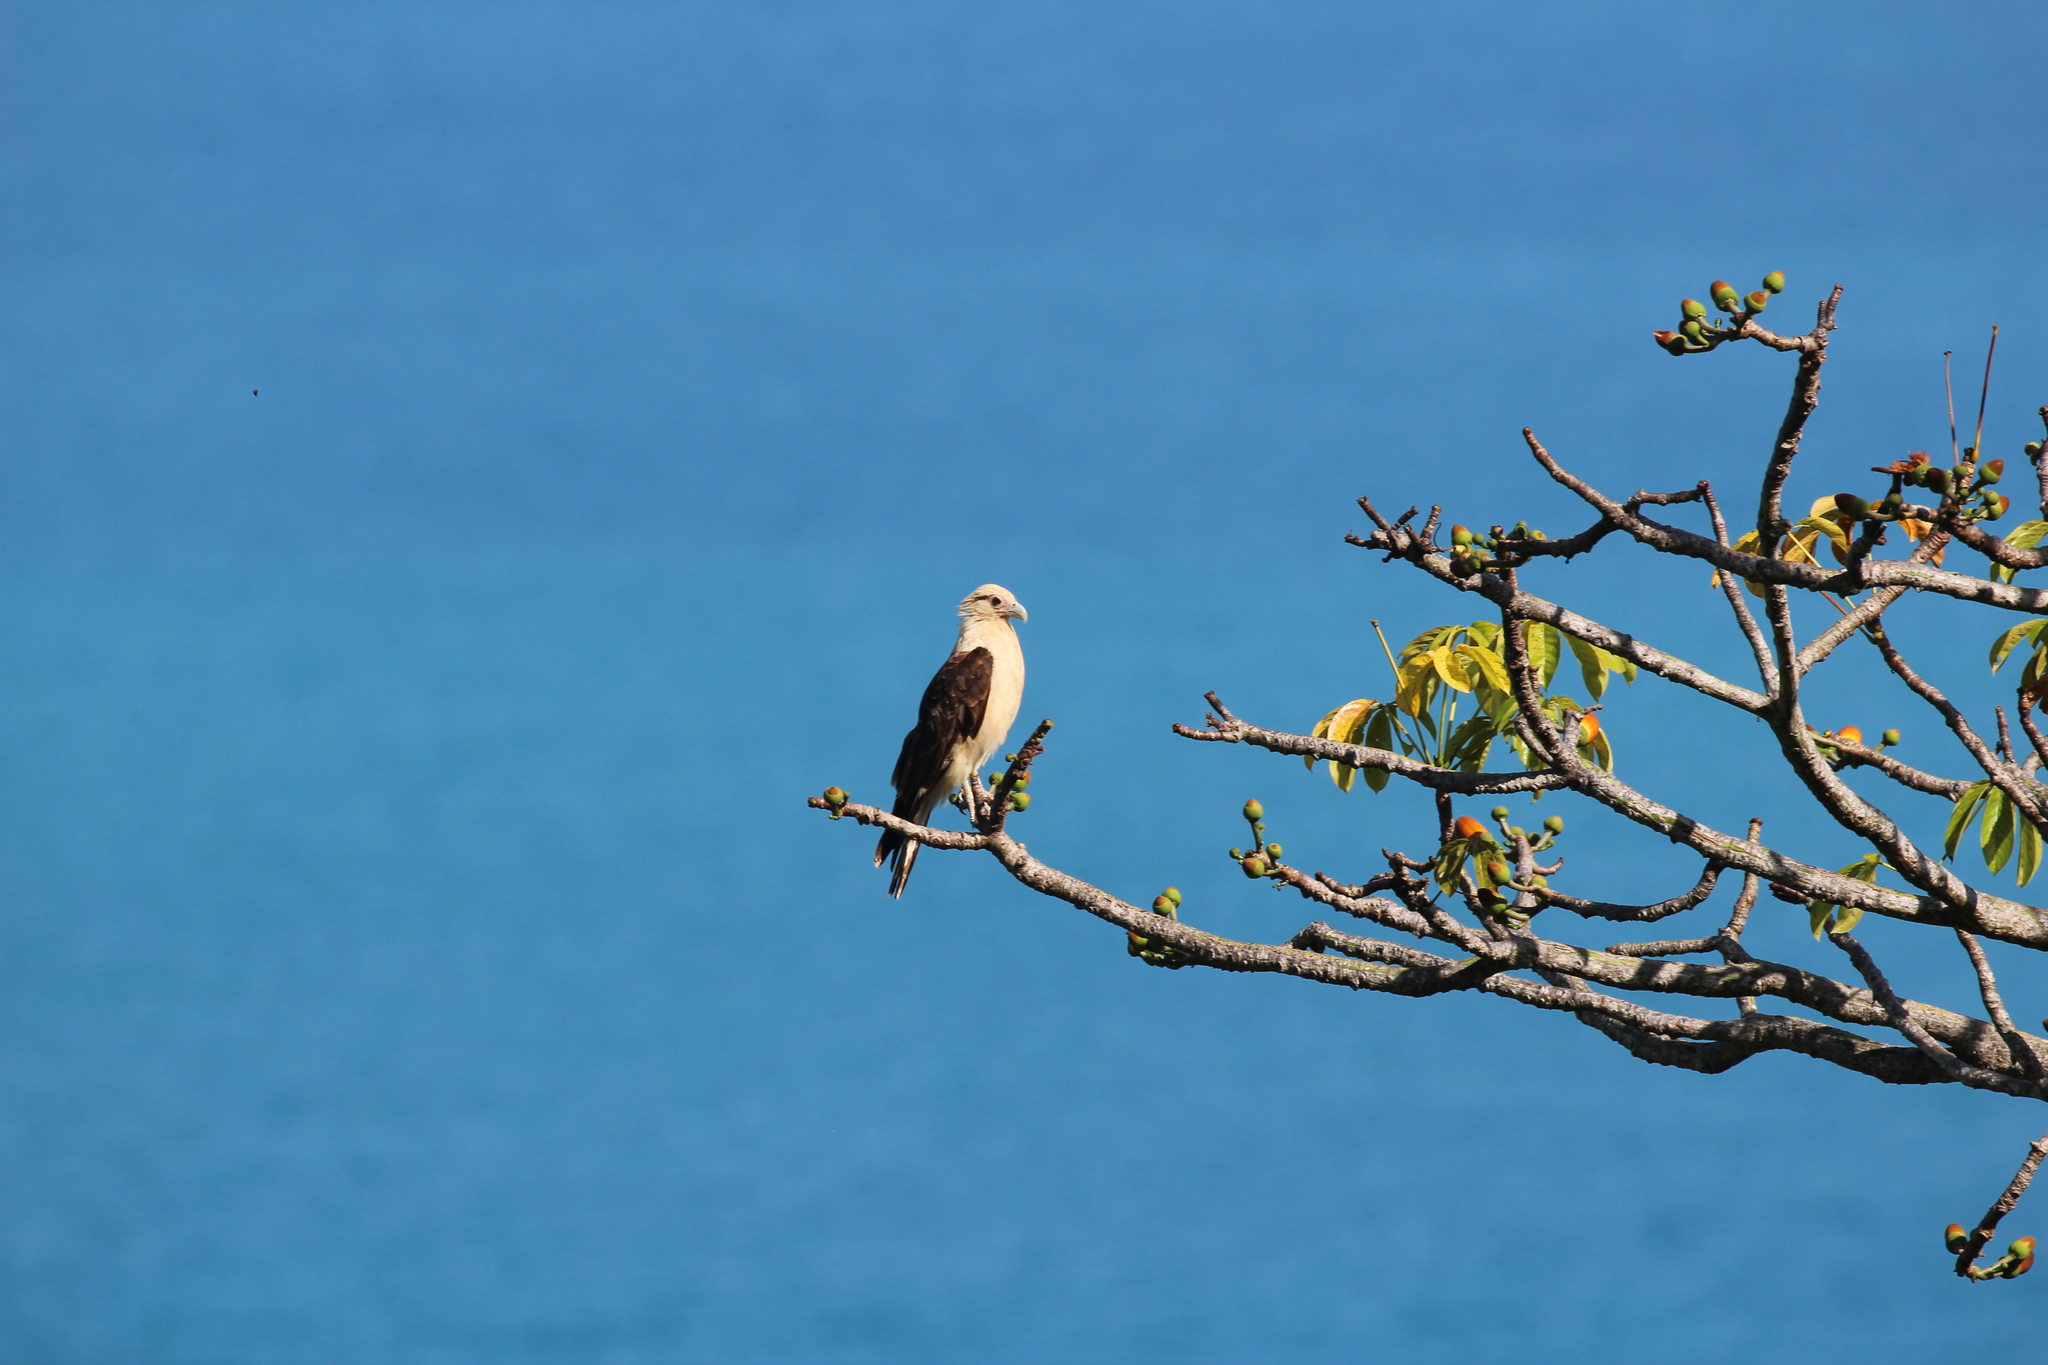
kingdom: Animalia
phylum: Chordata
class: Aves
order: Falconiformes
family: Falconidae
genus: Daptrius
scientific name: Daptrius
